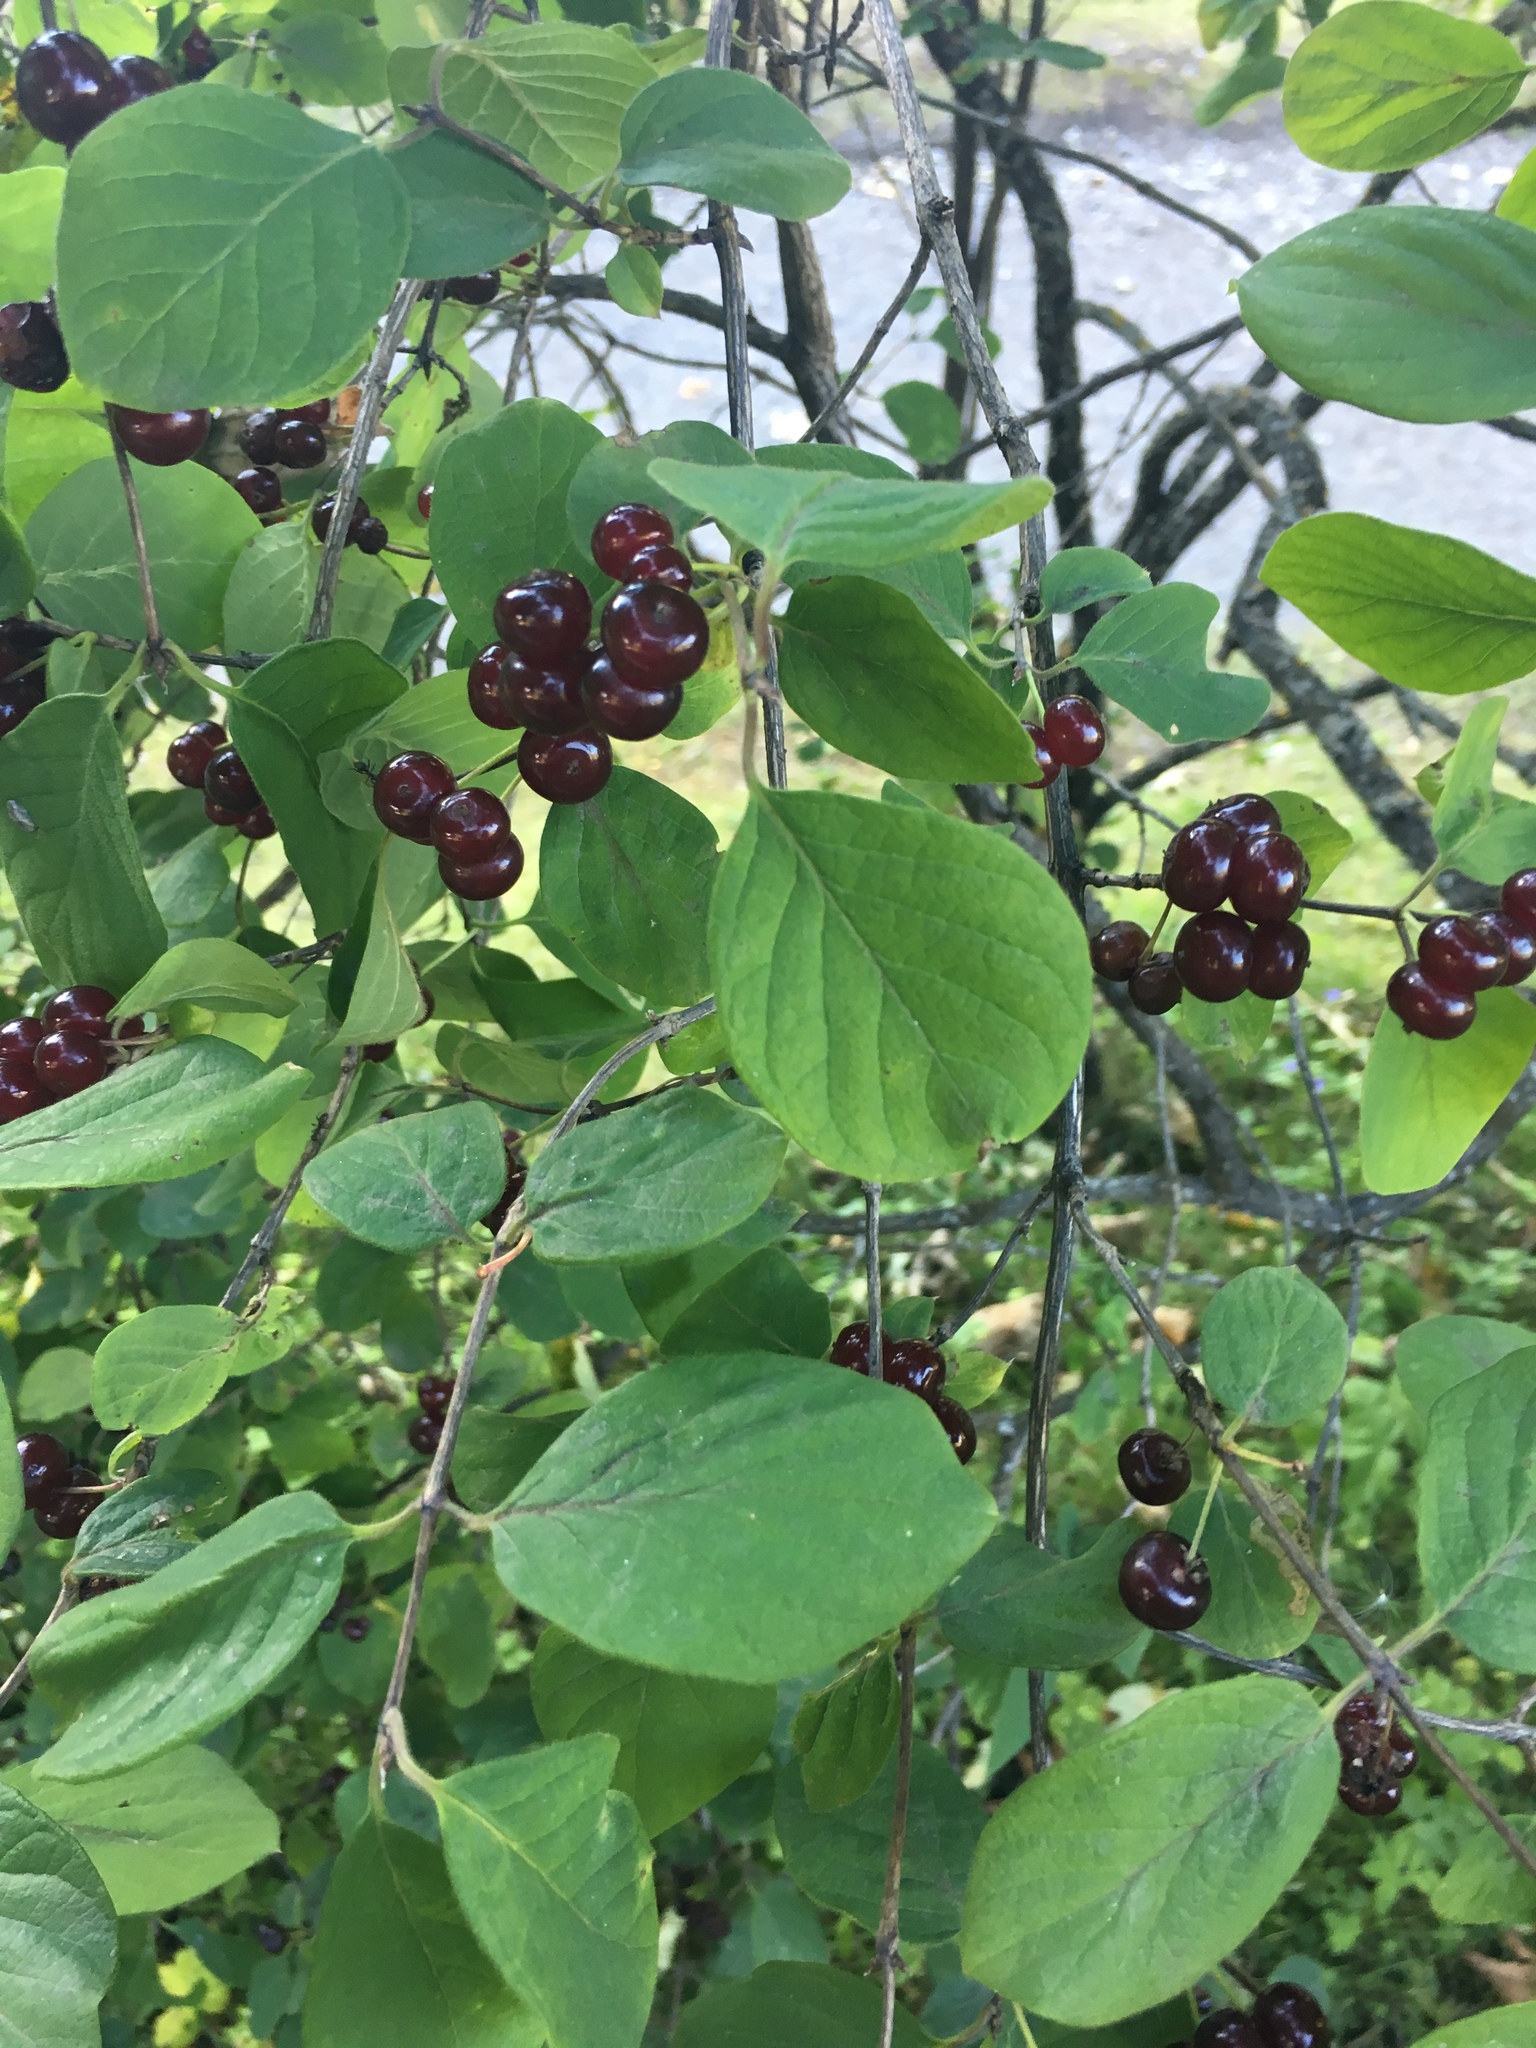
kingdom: Plantae
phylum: Tracheophyta
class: Magnoliopsida
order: Dipsacales
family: Caprifoliaceae
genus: Lonicera
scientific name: Lonicera xylosteum
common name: Fly honeysuckle
